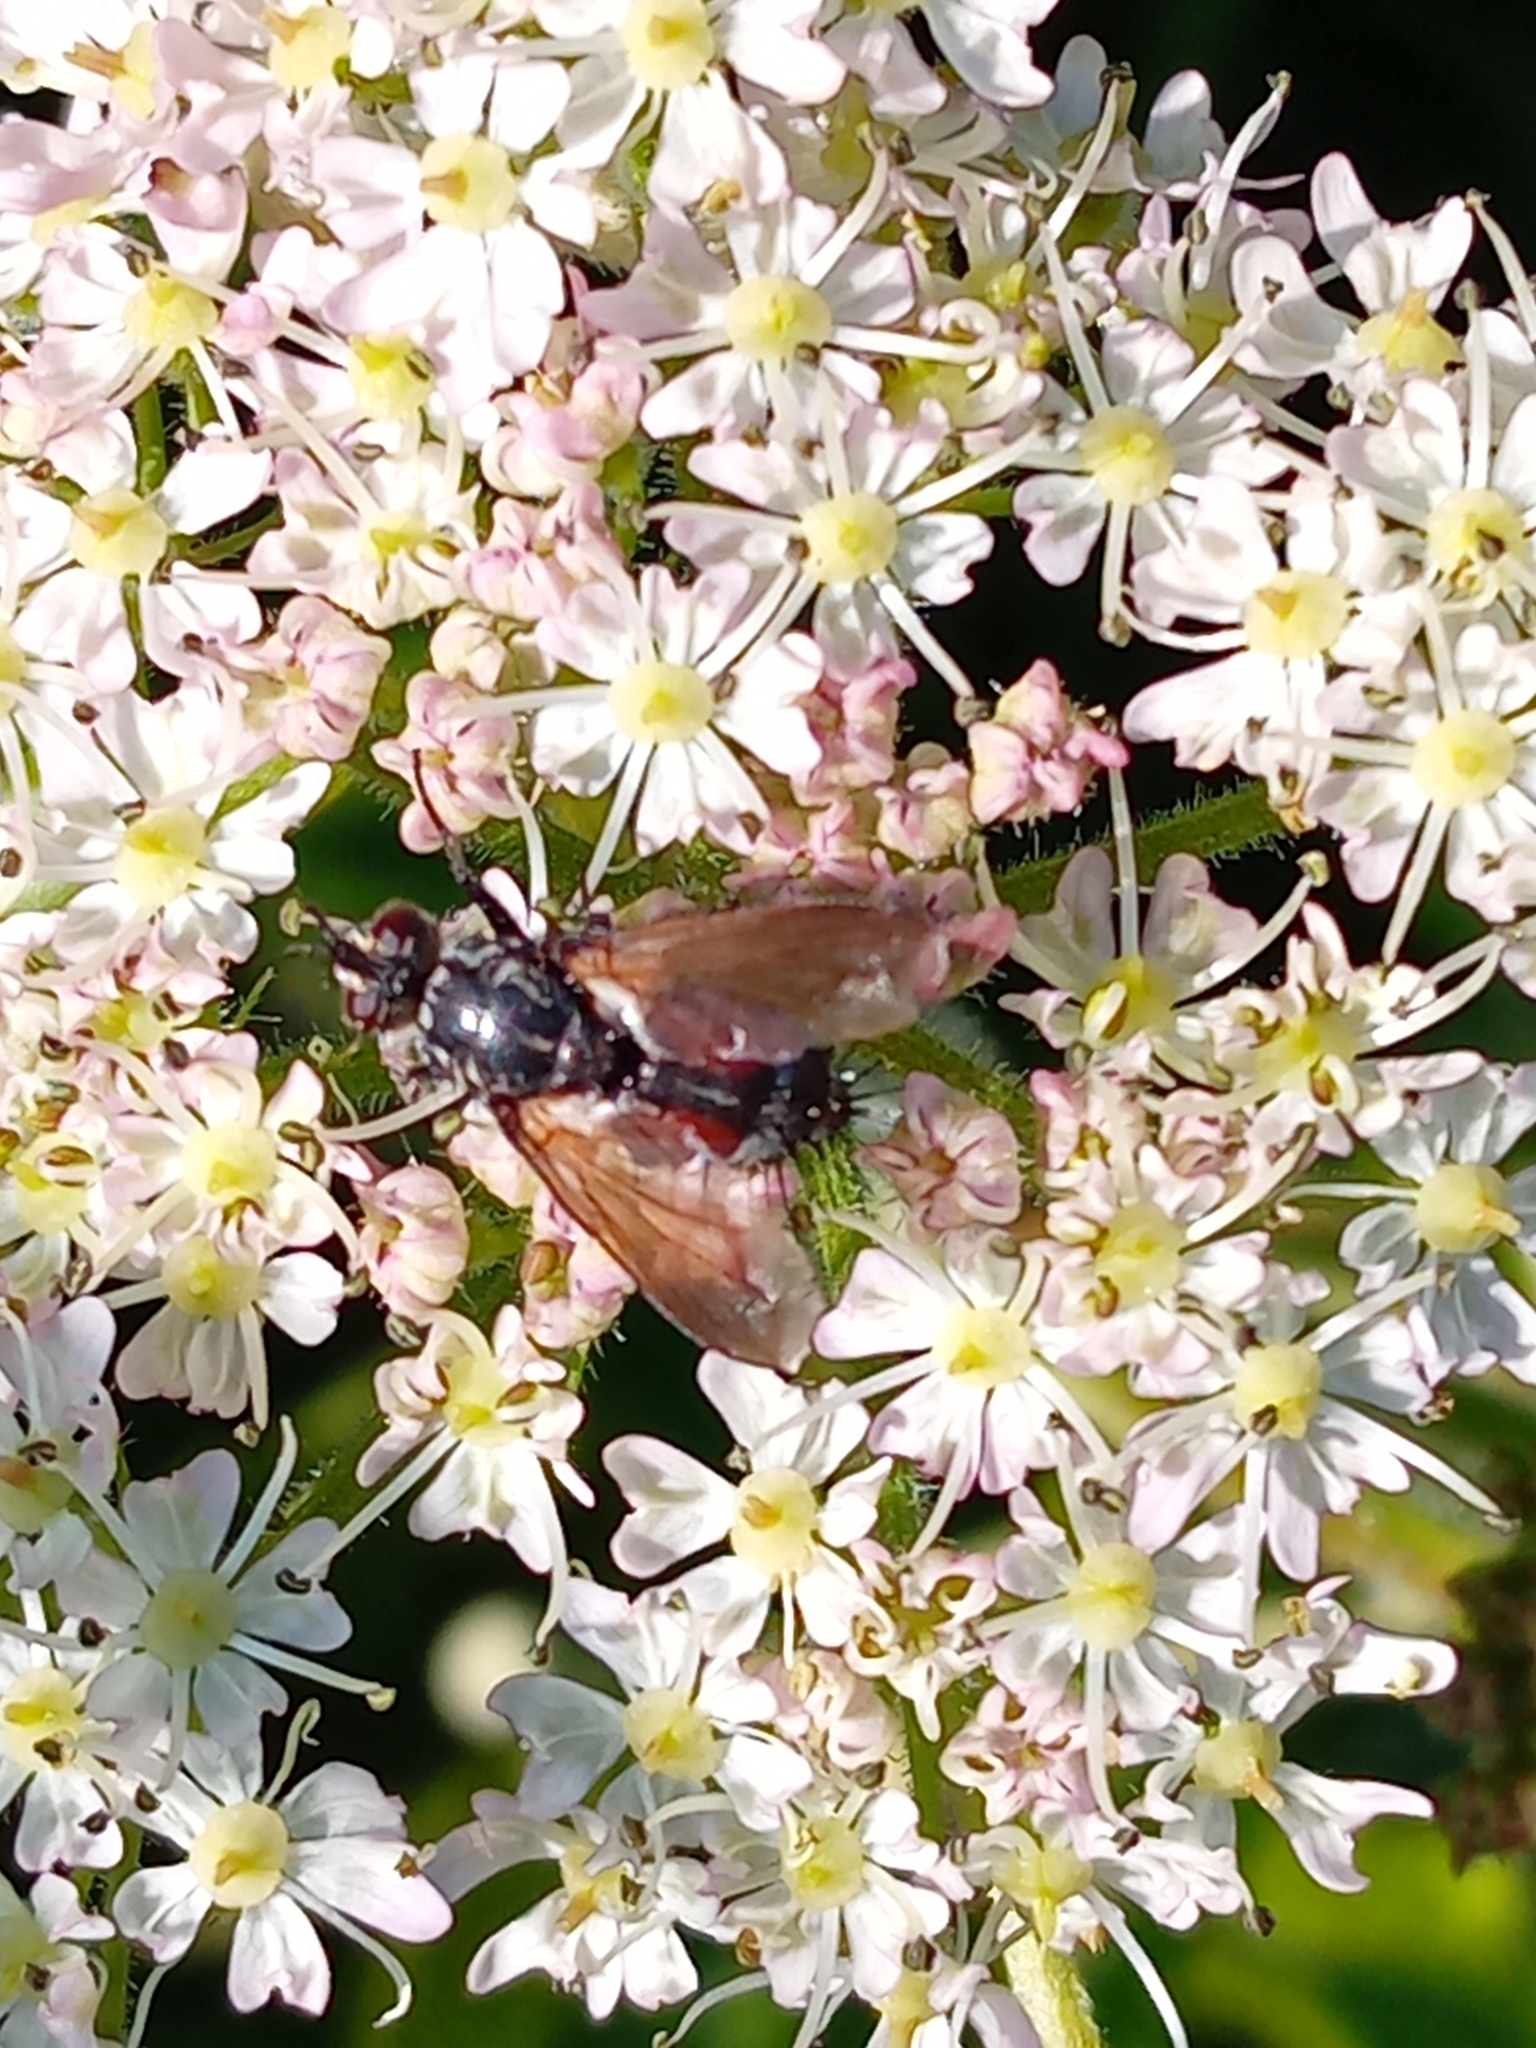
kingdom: Animalia
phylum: Arthropoda
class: Insecta
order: Diptera
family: Tachinidae
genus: Eriothrix
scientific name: Eriothrix rufomaculatus
